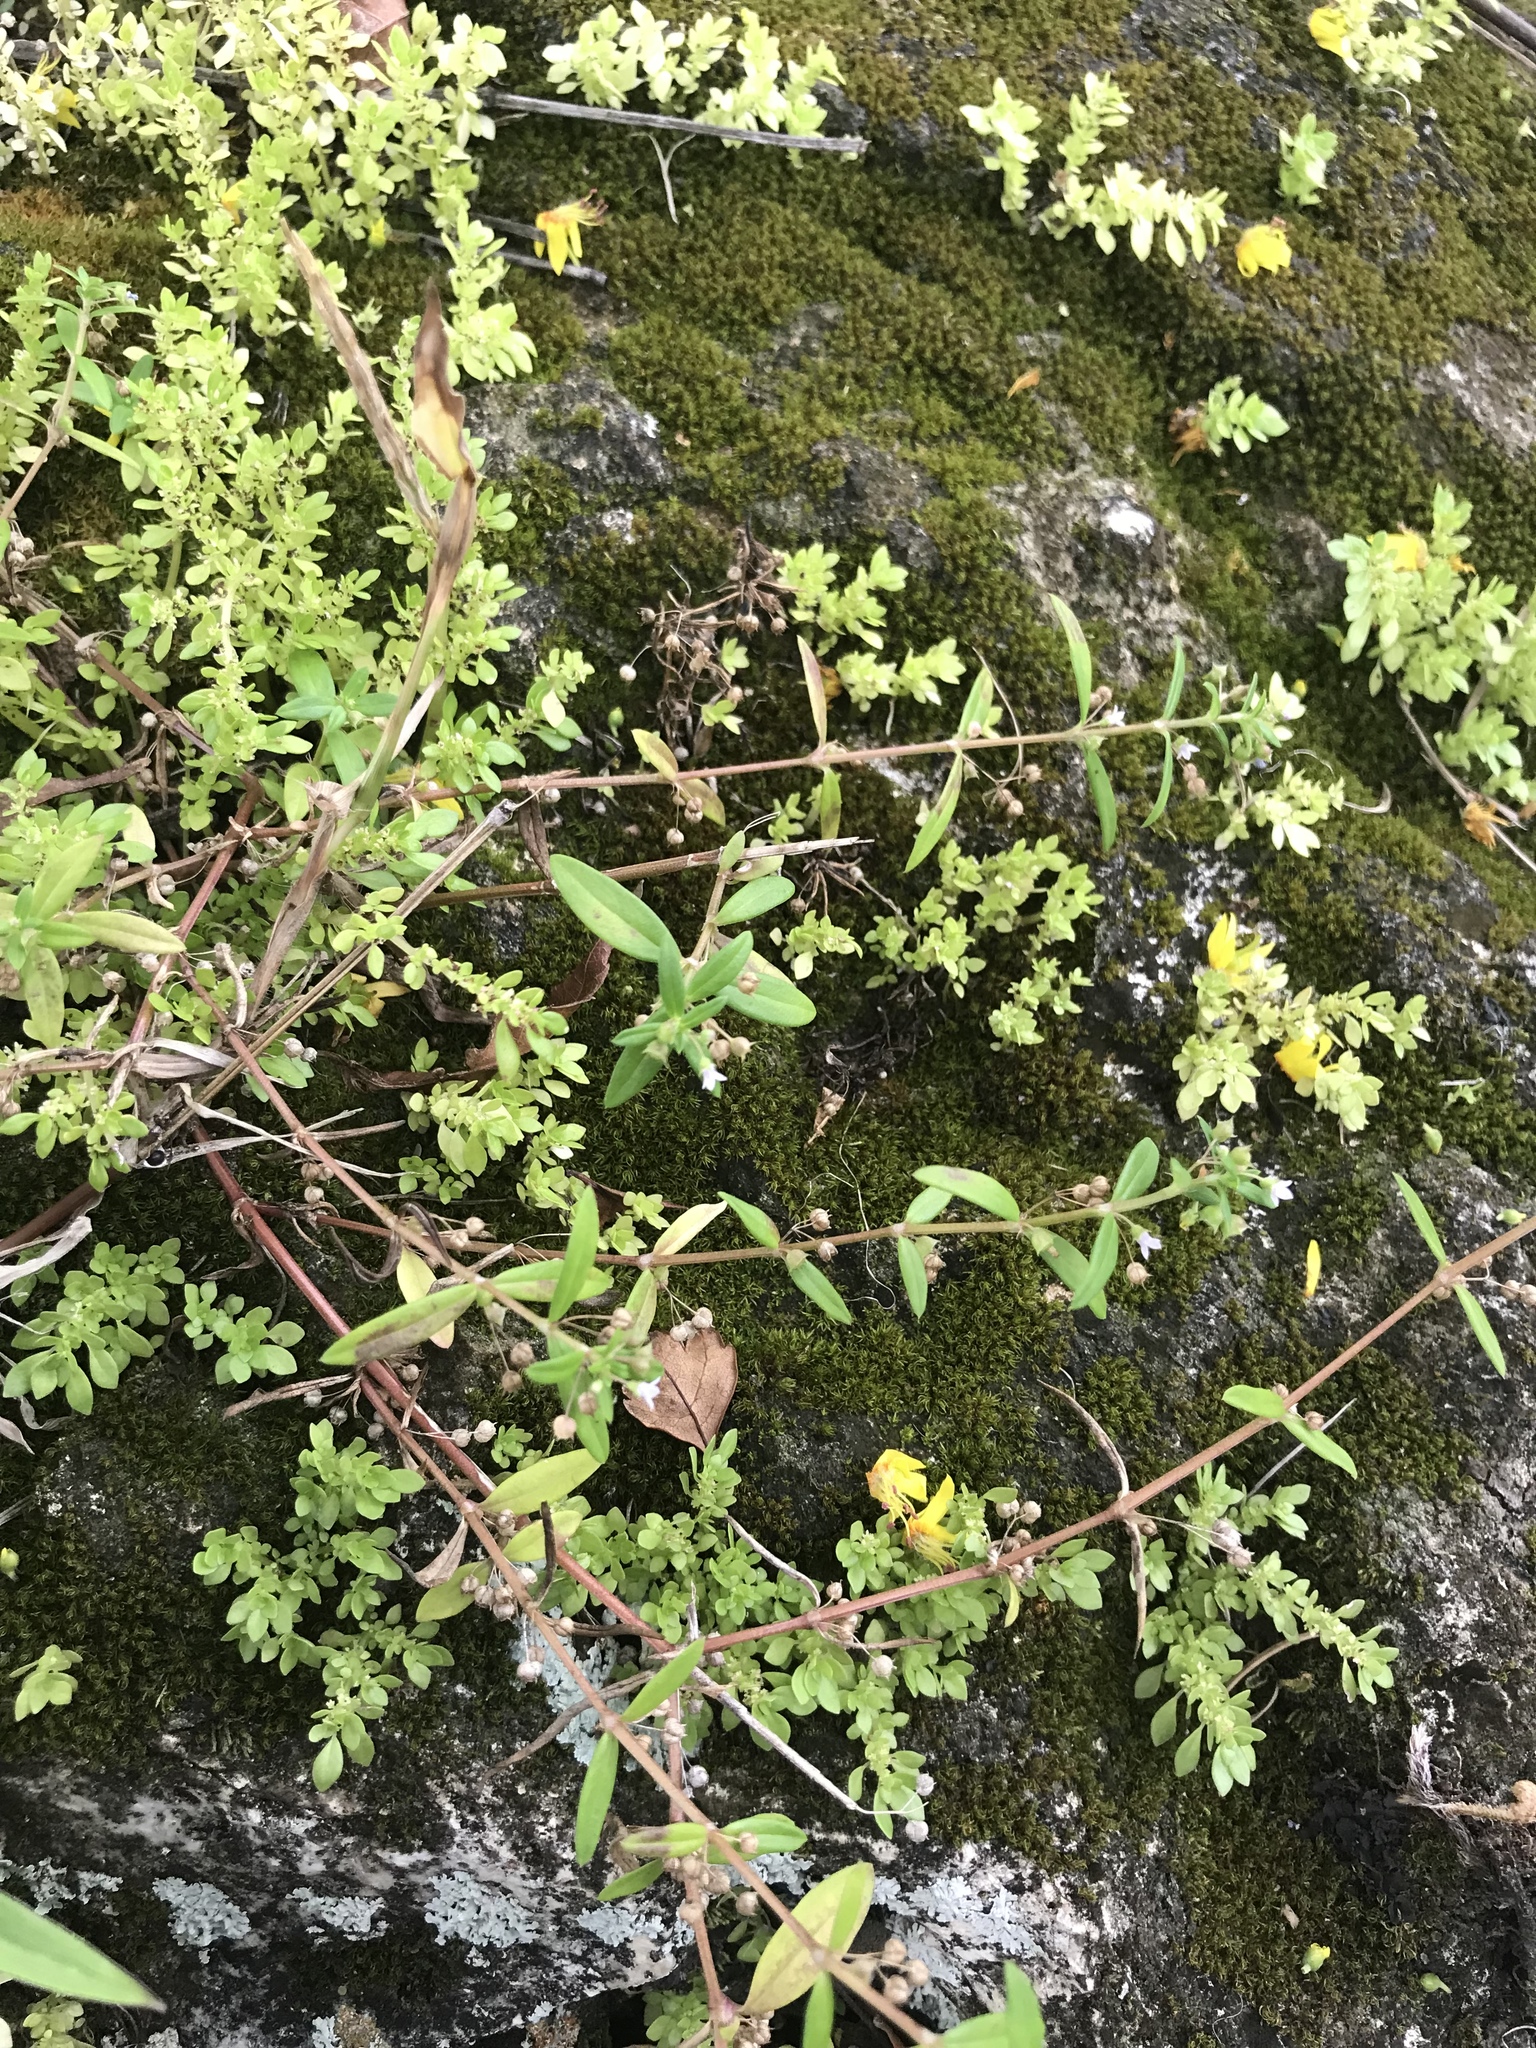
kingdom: Plantae
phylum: Tracheophyta
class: Magnoliopsida
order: Gentianales
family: Rubiaceae
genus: Oldenlandia
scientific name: Oldenlandia corymbosa
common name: Flat-top mille graines
